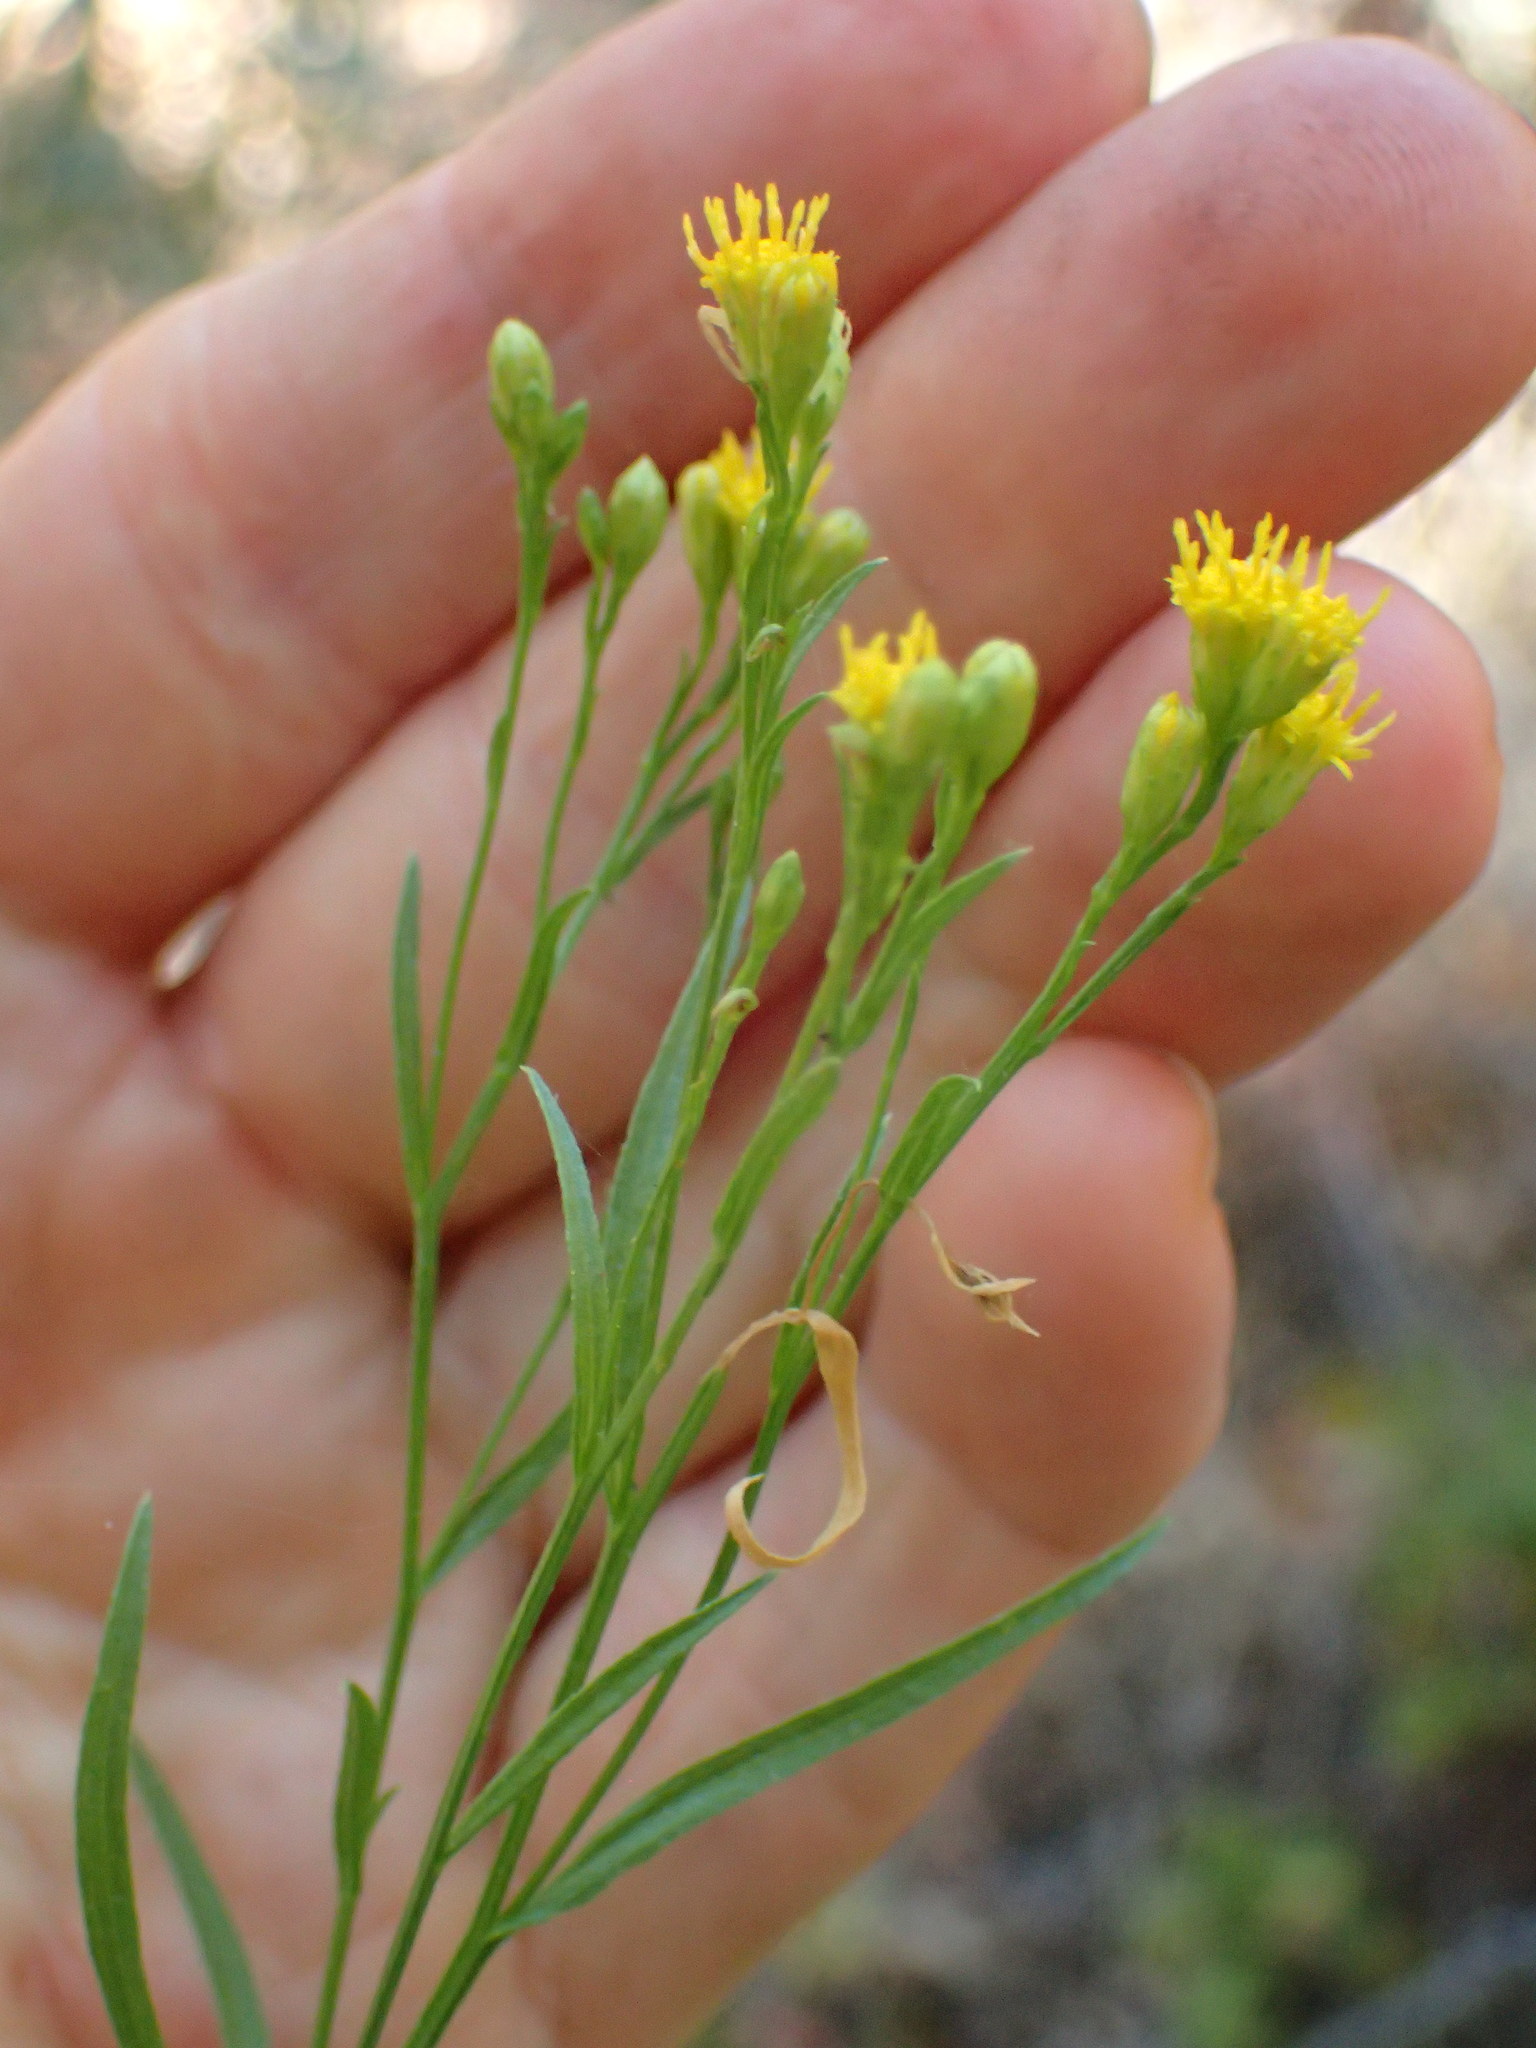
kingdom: Plantae
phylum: Tracheophyta
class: Magnoliopsida
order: Asterales
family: Asteraceae
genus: Euthamia
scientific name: Euthamia occidentalis
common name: Western goldentop
